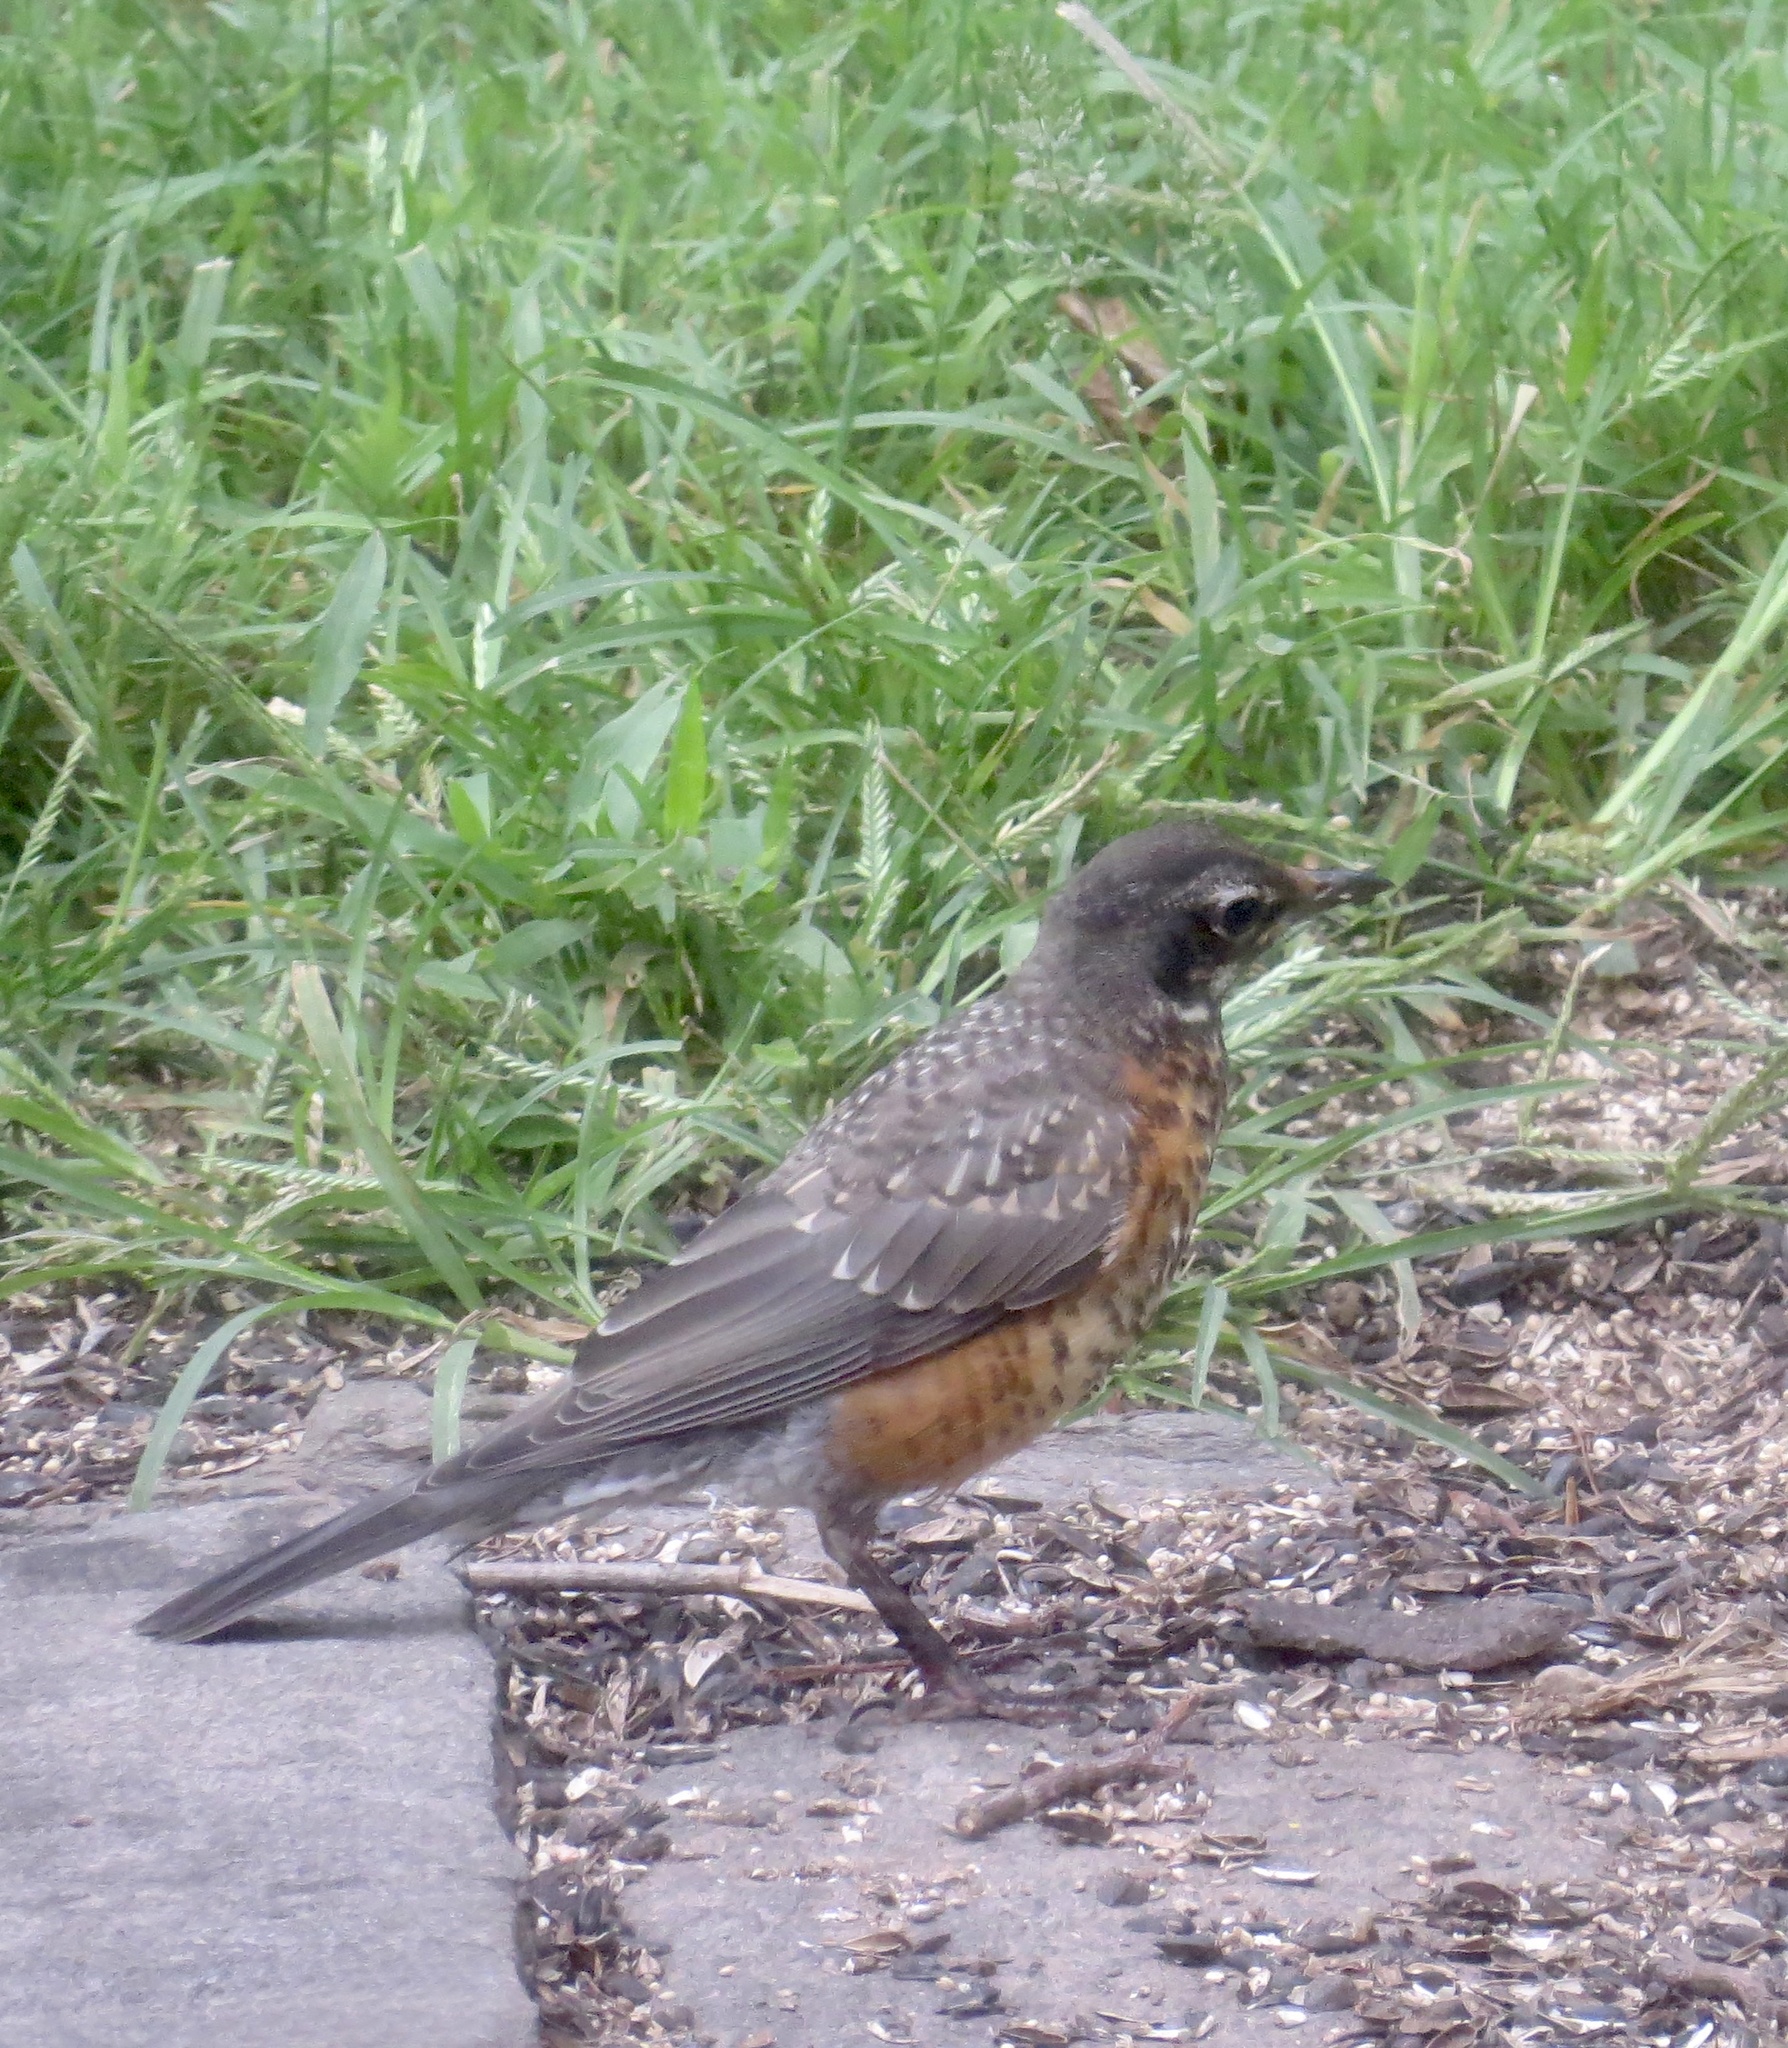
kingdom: Animalia
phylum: Chordata
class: Aves
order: Passeriformes
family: Turdidae
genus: Turdus
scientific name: Turdus migratorius
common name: American robin
